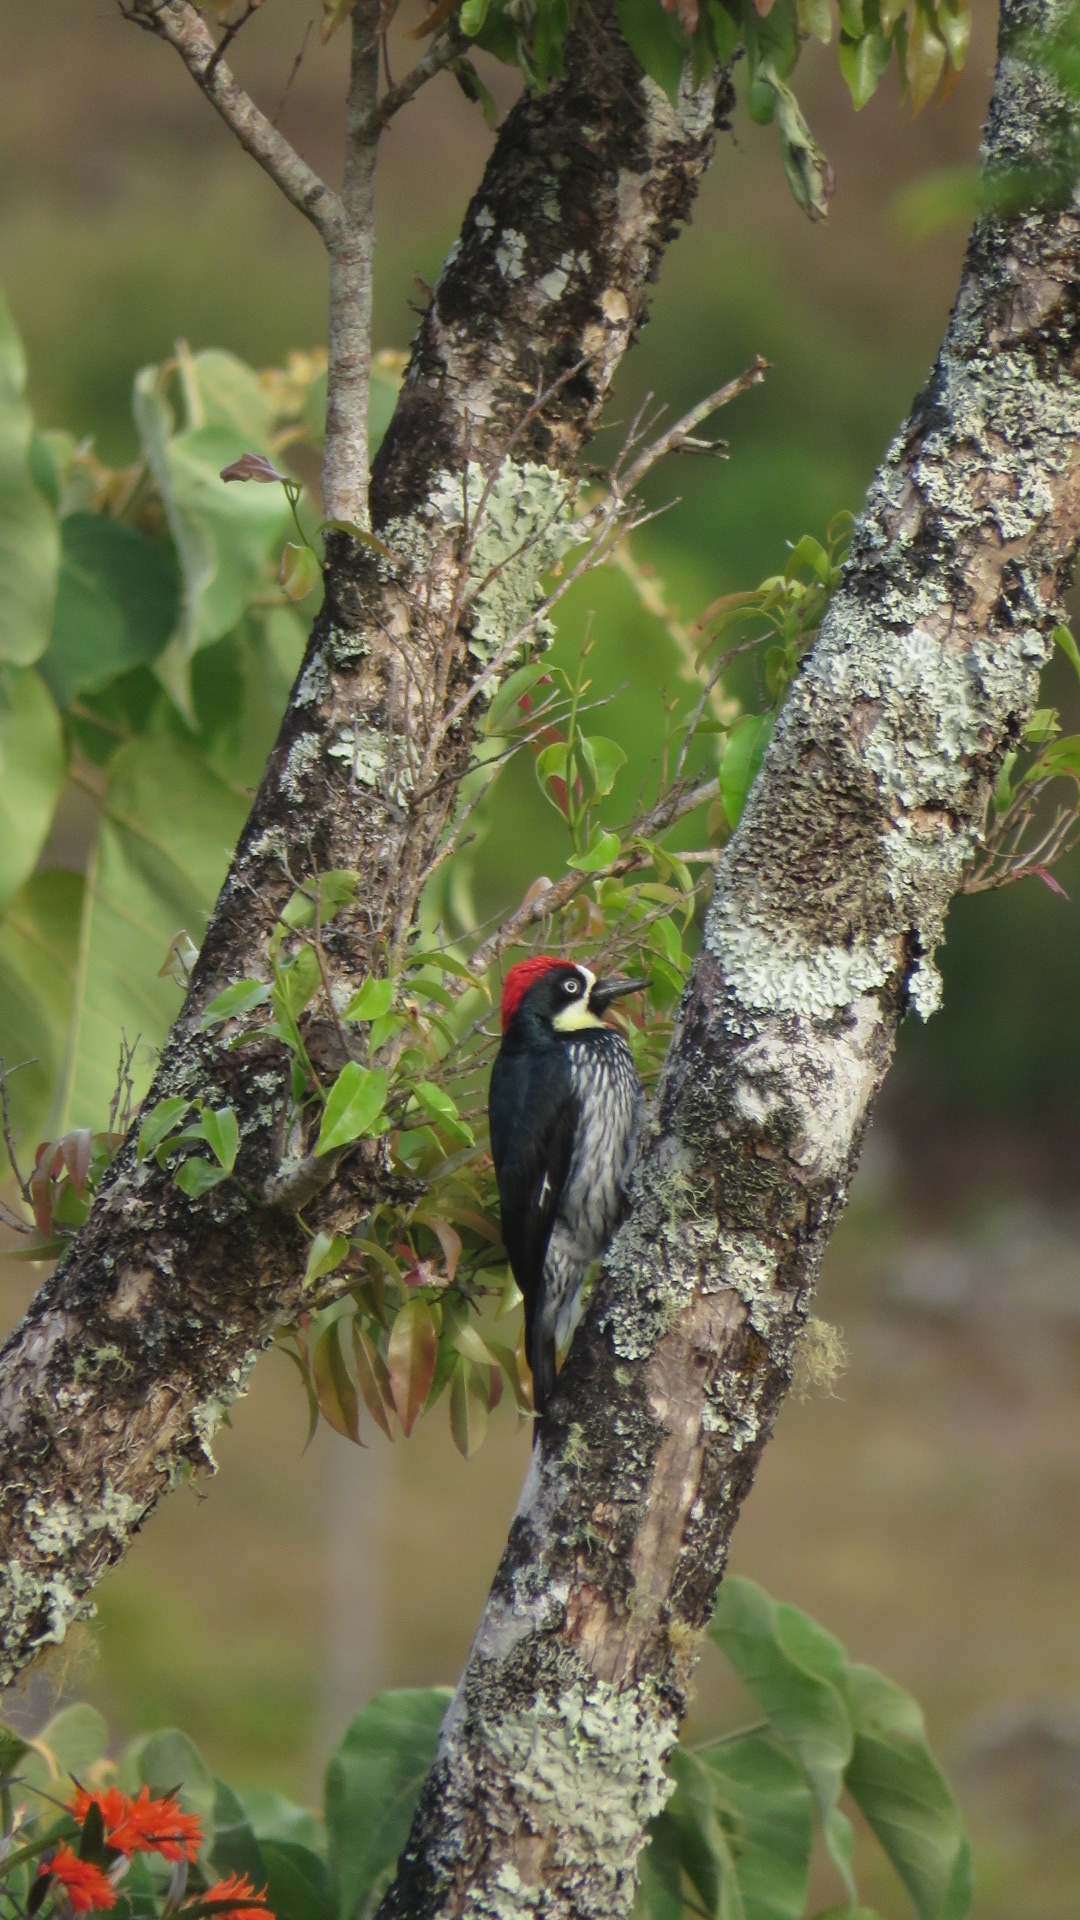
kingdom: Animalia
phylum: Chordata
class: Aves
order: Piciformes
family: Picidae
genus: Melanerpes
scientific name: Melanerpes formicivorus
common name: Acorn woodpecker
